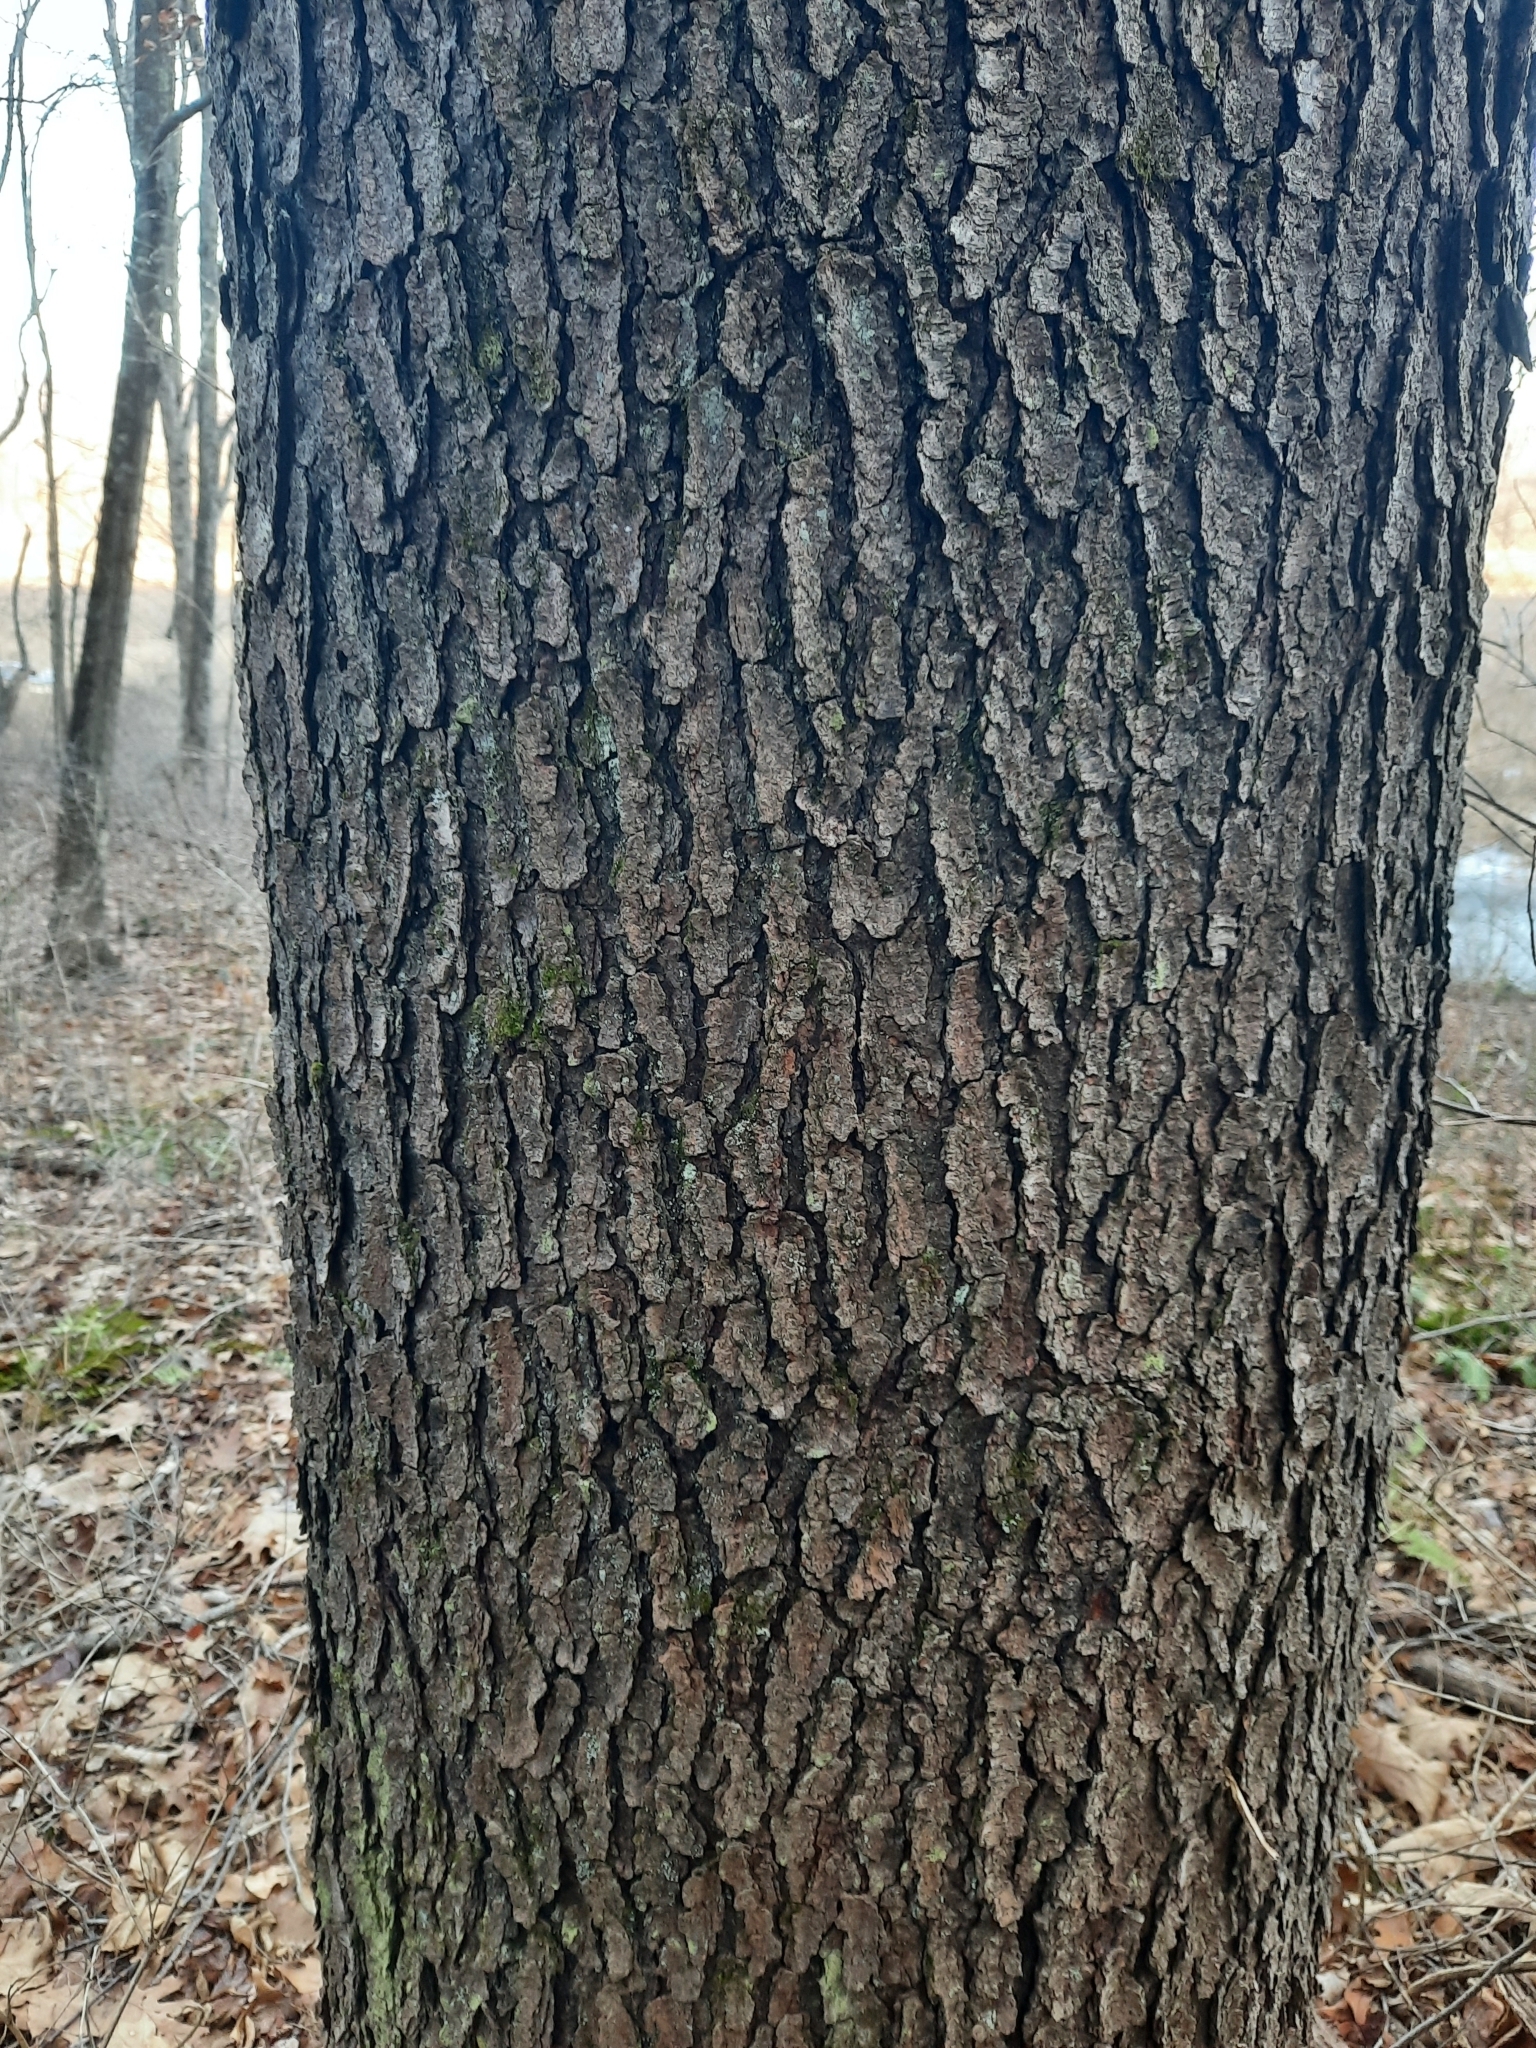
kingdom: Plantae
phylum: Tracheophyta
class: Magnoliopsida
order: Rosales
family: Rosaceae
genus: Prunus
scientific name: Prunus serotina
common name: Black cherry
